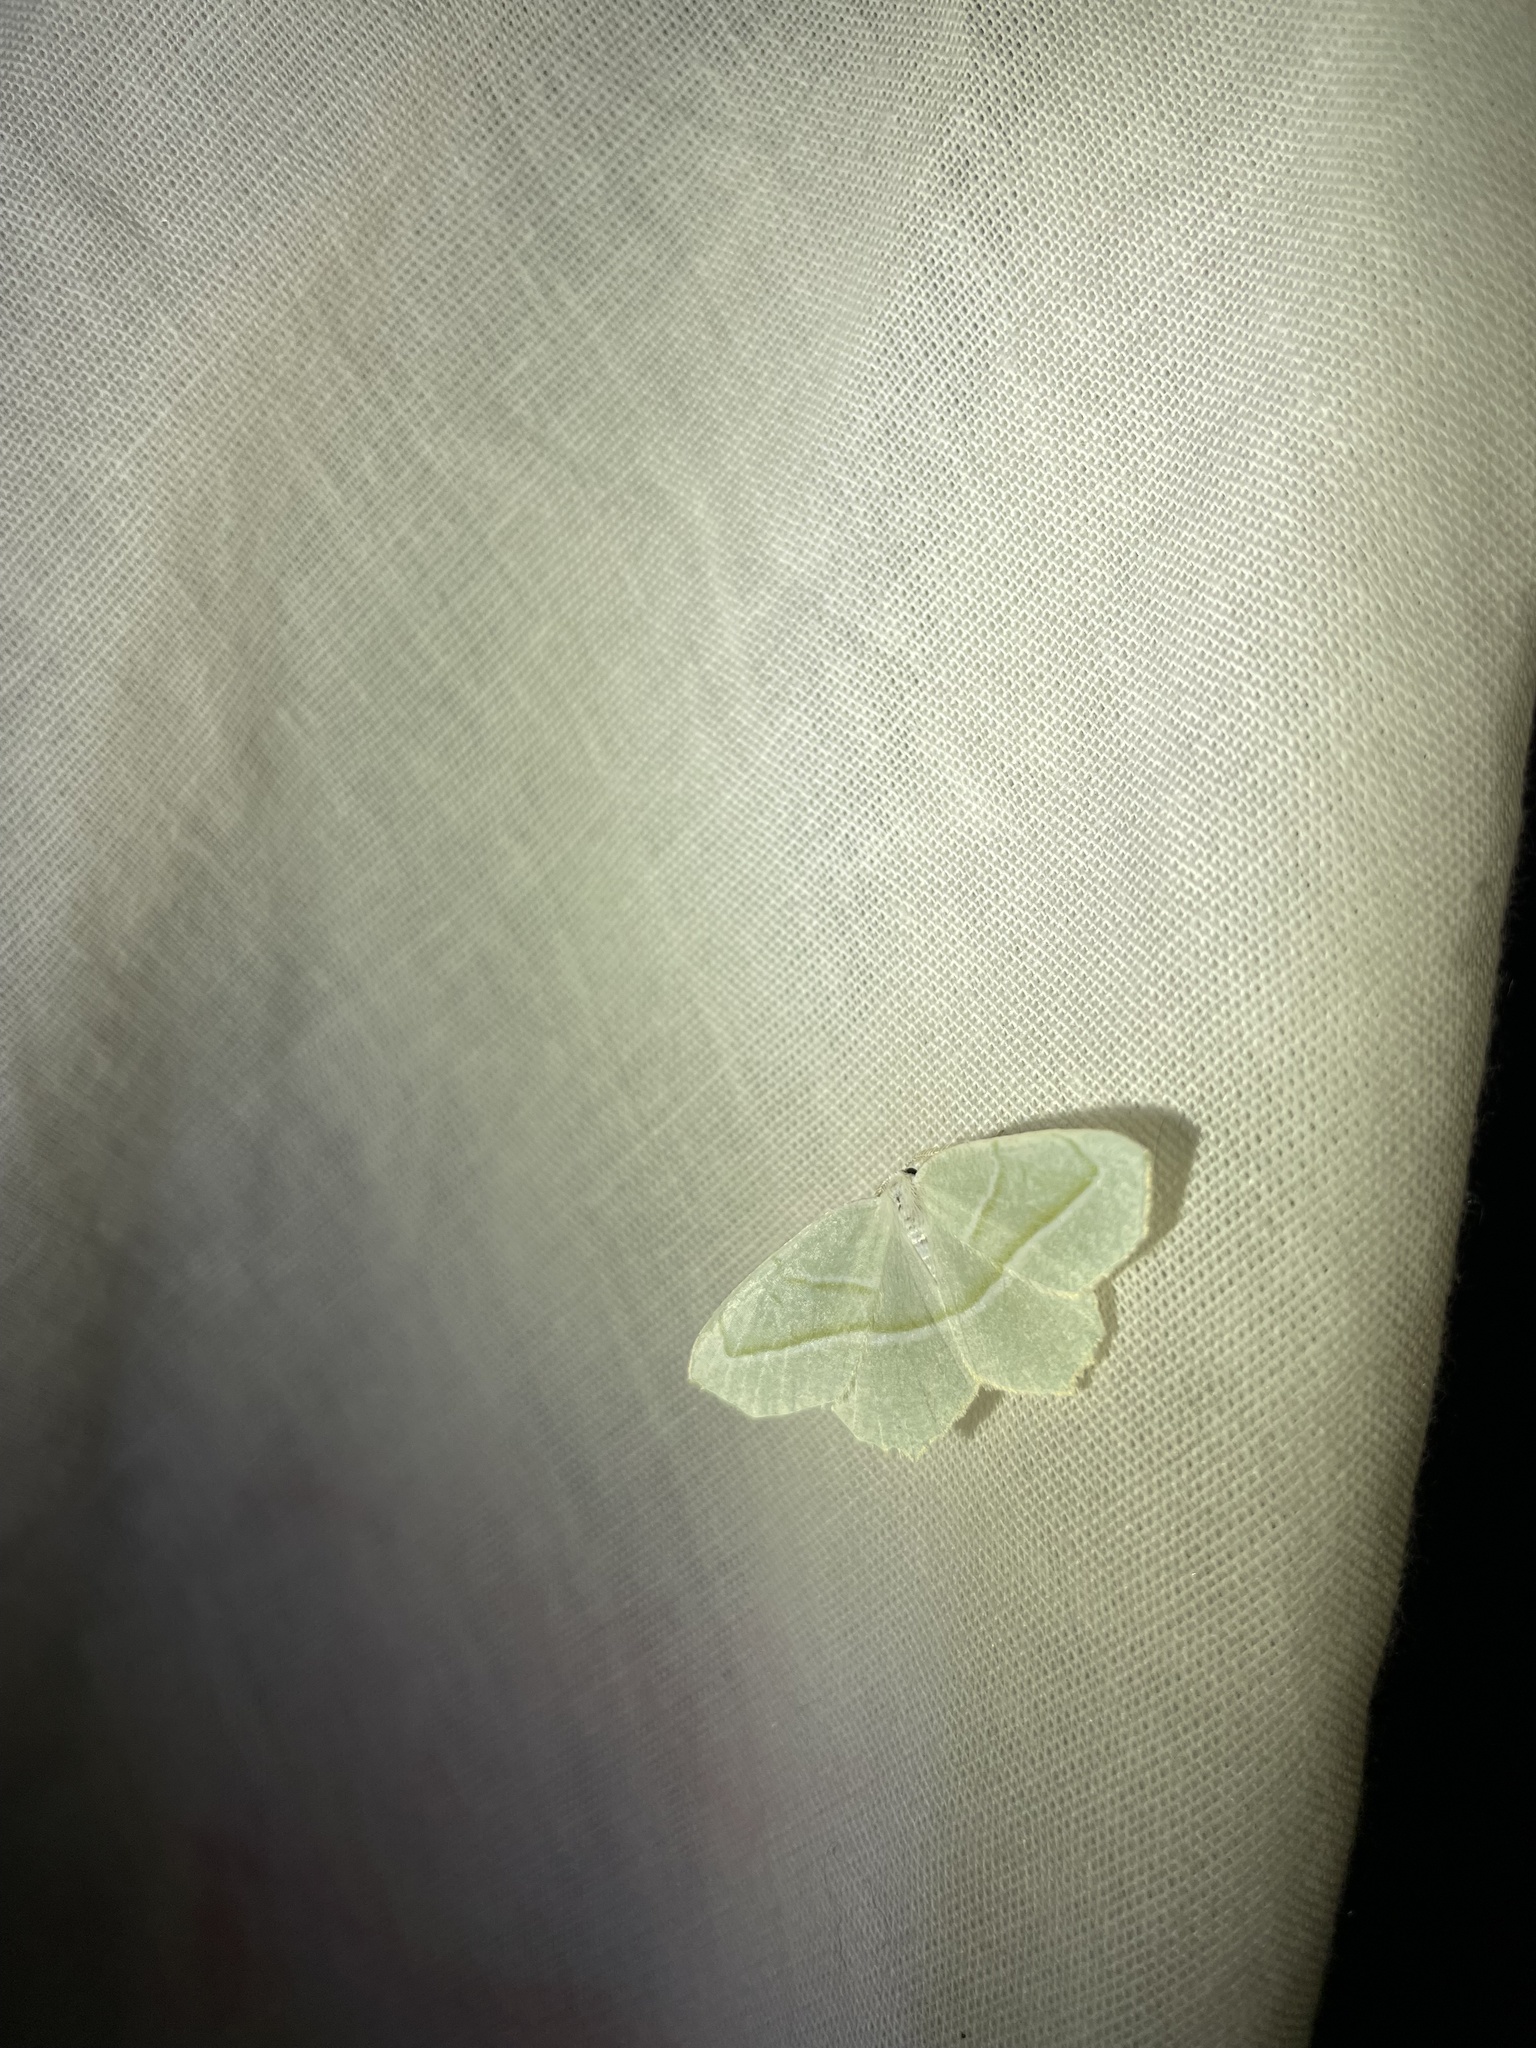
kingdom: Animalia
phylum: Arthropoda
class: Insecta
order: Lepidoptera
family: Geometridae
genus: Campaea
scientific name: Campaea perlata
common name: Fringed looper
